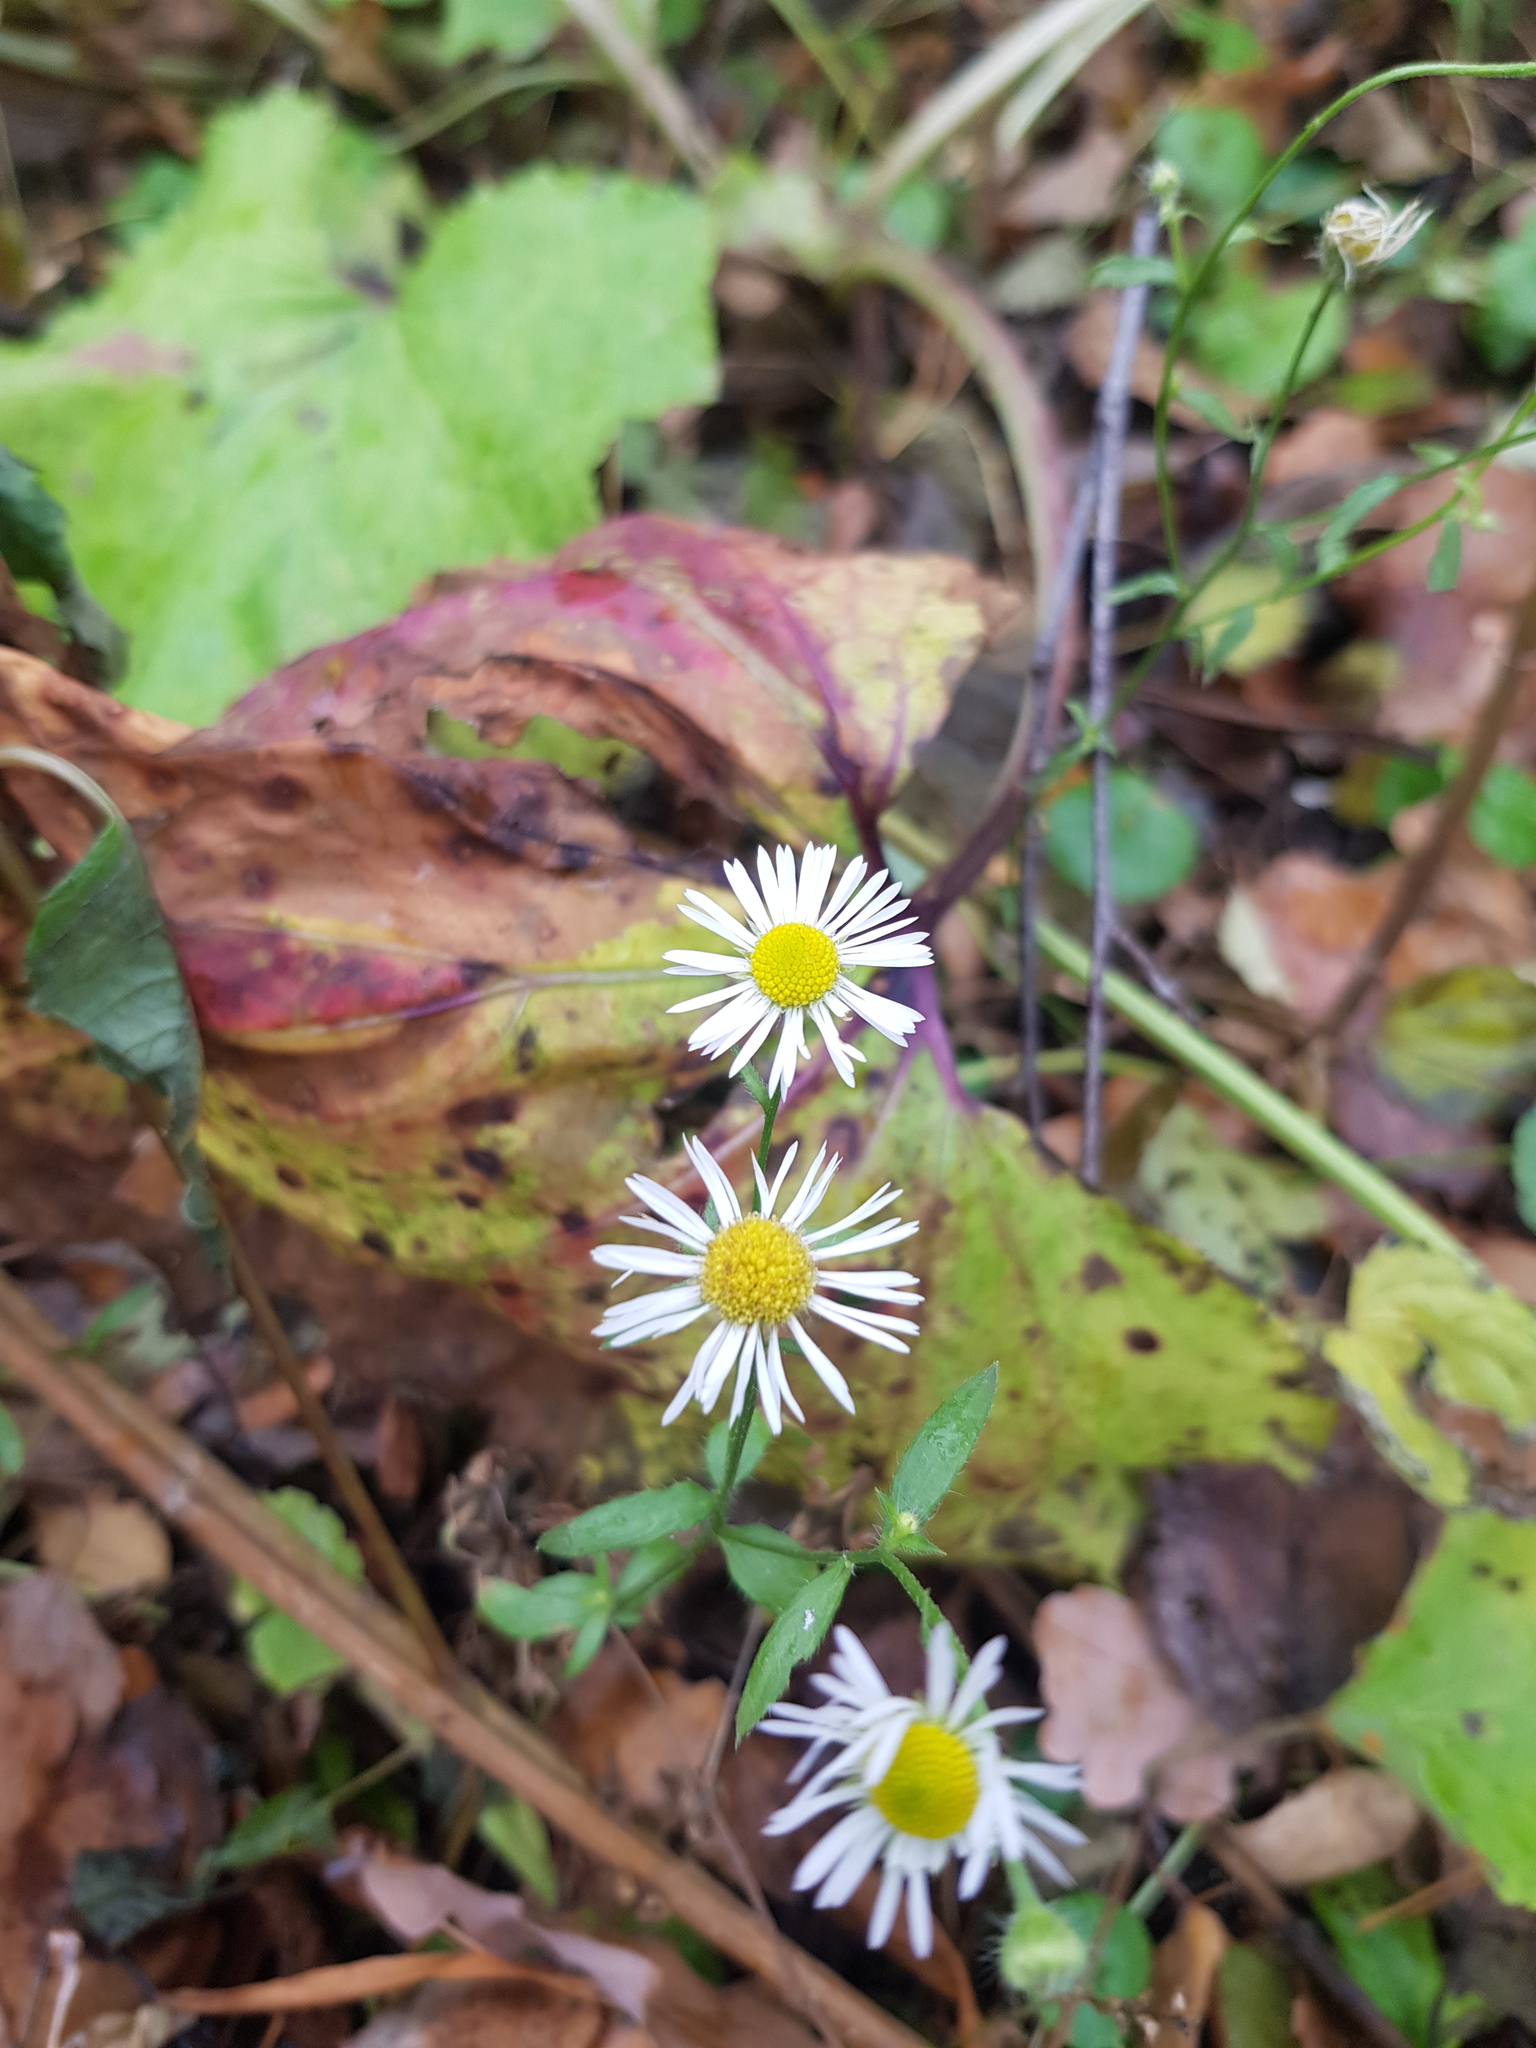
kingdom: Plantae
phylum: Tracheophyta
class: Magnoliopsida
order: Asterales
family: Asteraceae
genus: Erigeron
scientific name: Erigeron annuus
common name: Tall fleabane
